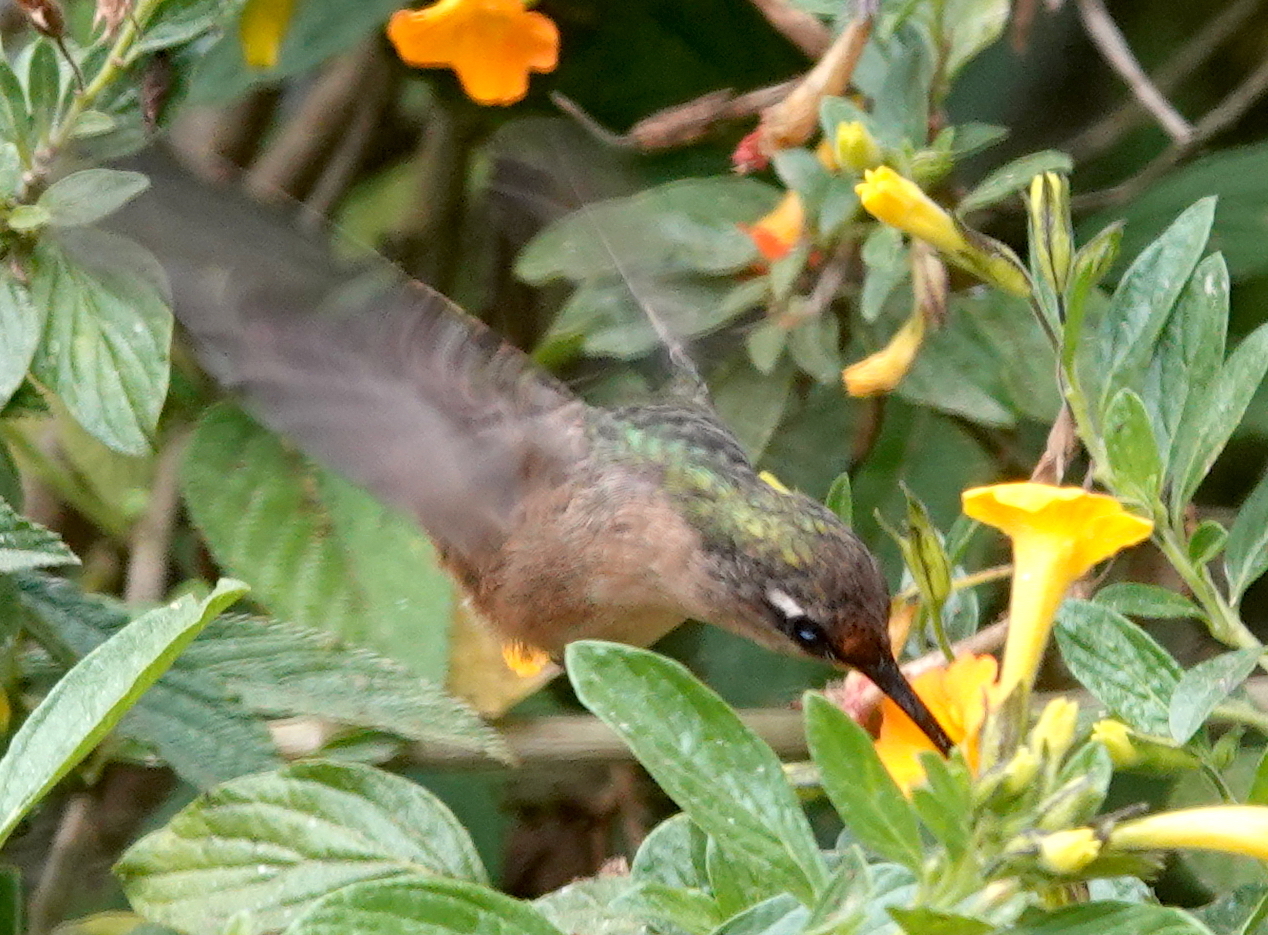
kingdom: Animalia
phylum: Chordata
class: Aves
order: Apodiformes
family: Trochilidae
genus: Anthocephala
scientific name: Anthocephala floriceps
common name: Santa marta blossomcrown
